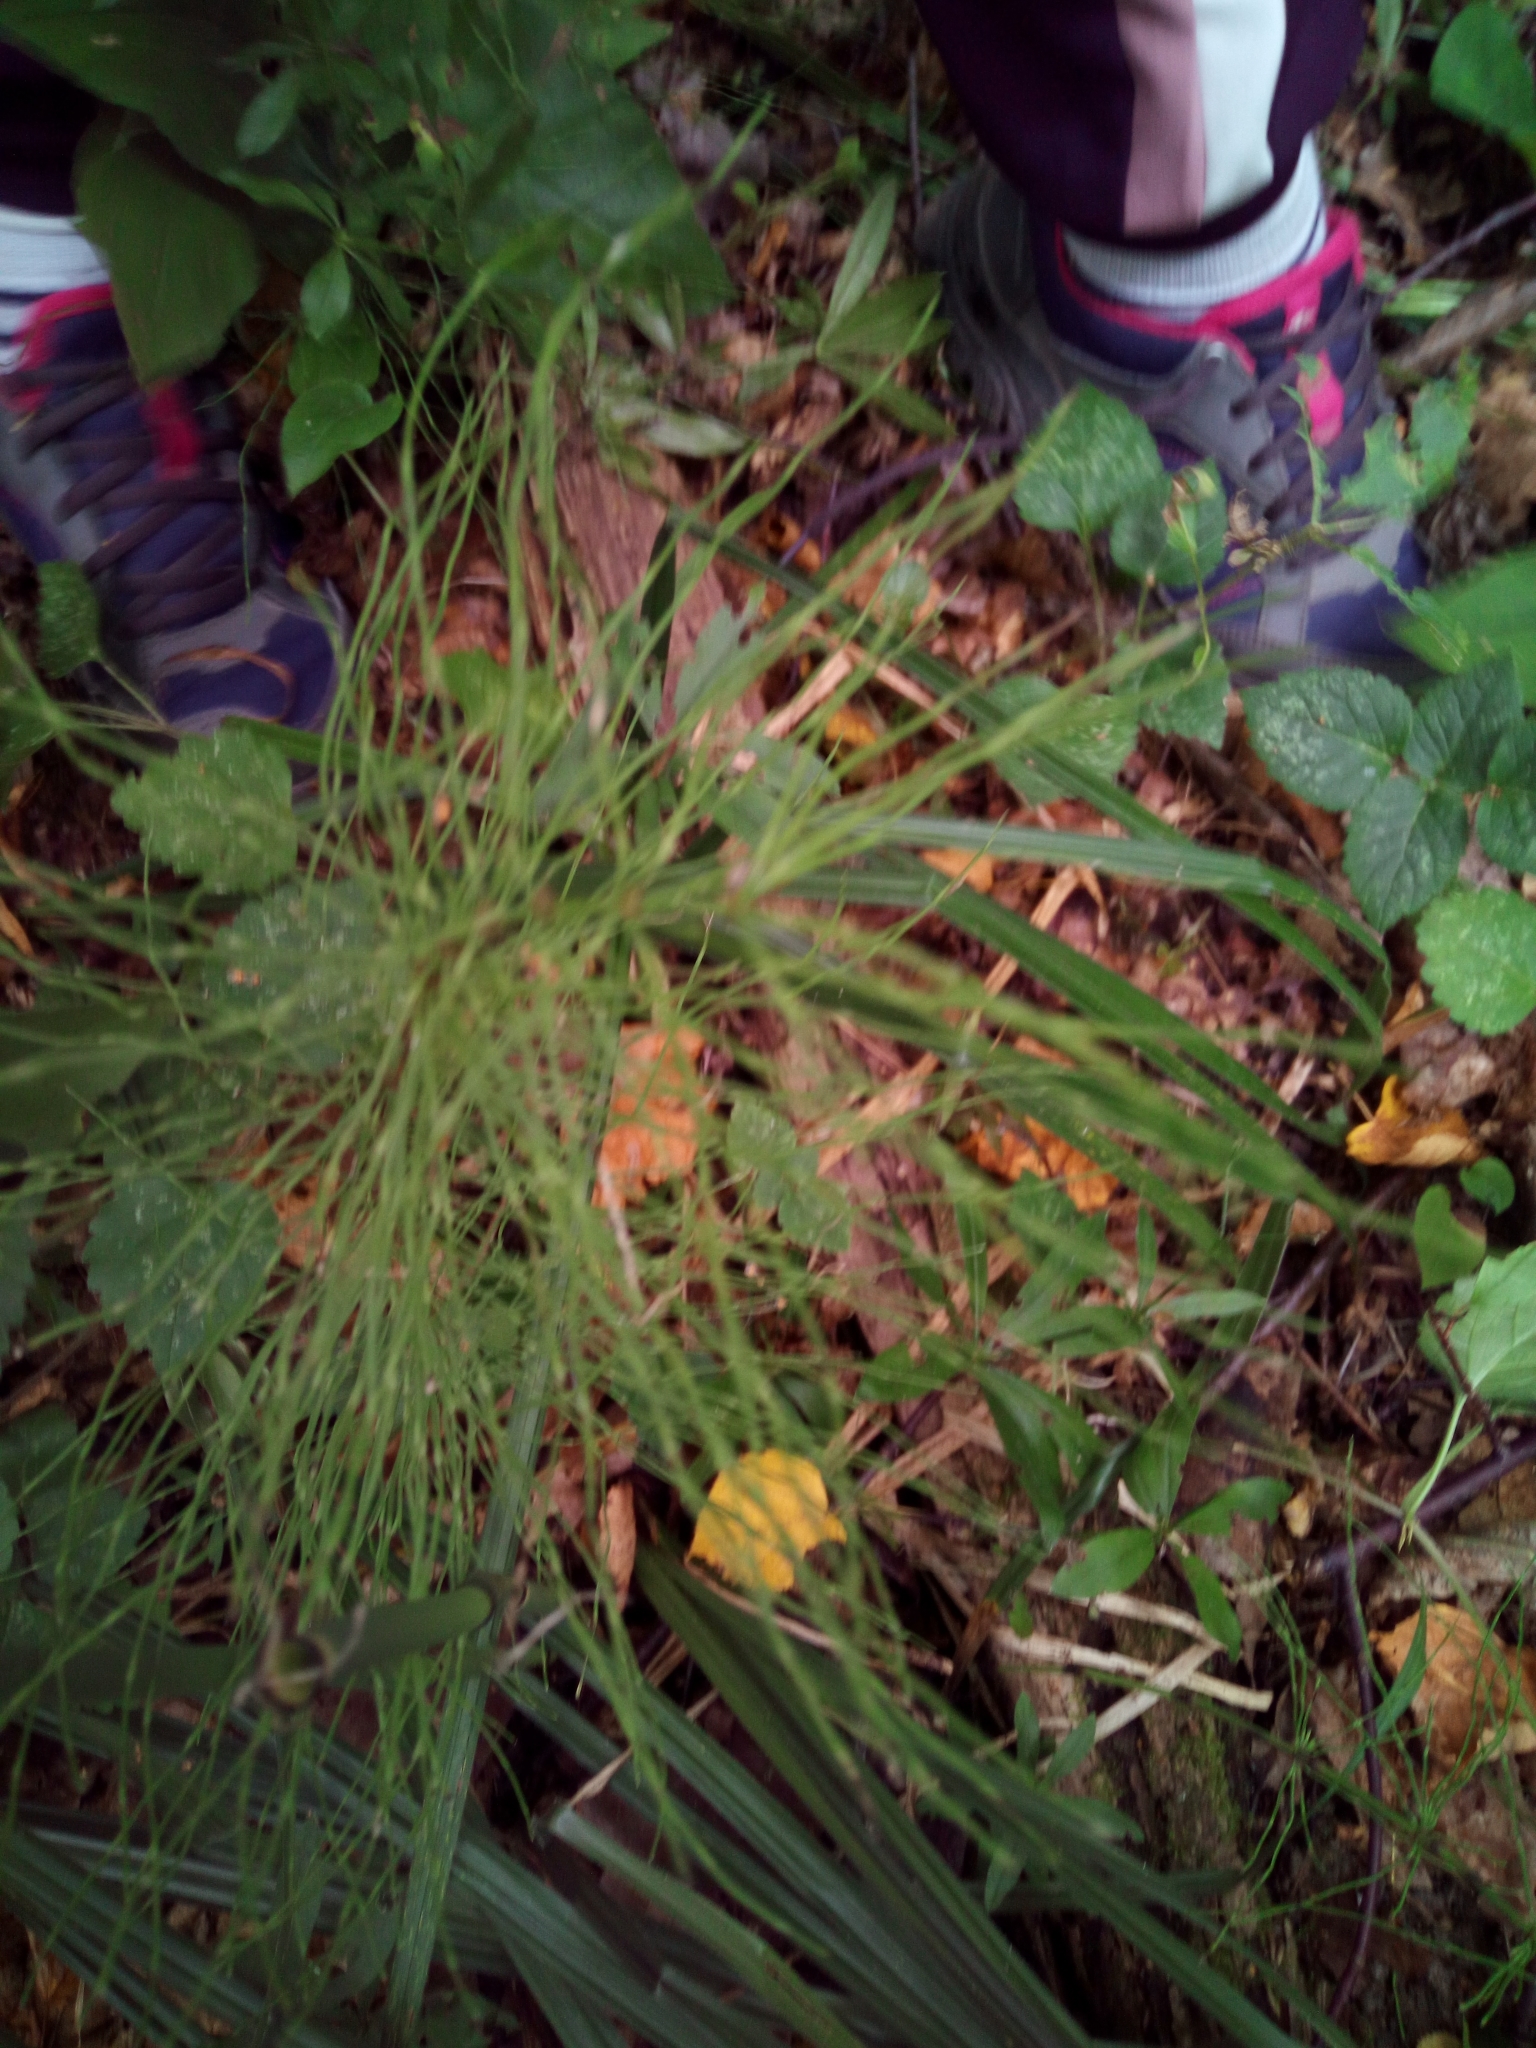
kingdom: Plantae
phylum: Tracheophyta
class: Polypodiopsida
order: Equisetales
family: Equisetaceae
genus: Equisetum
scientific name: Equisetum pratense
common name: Meadow horsetail
